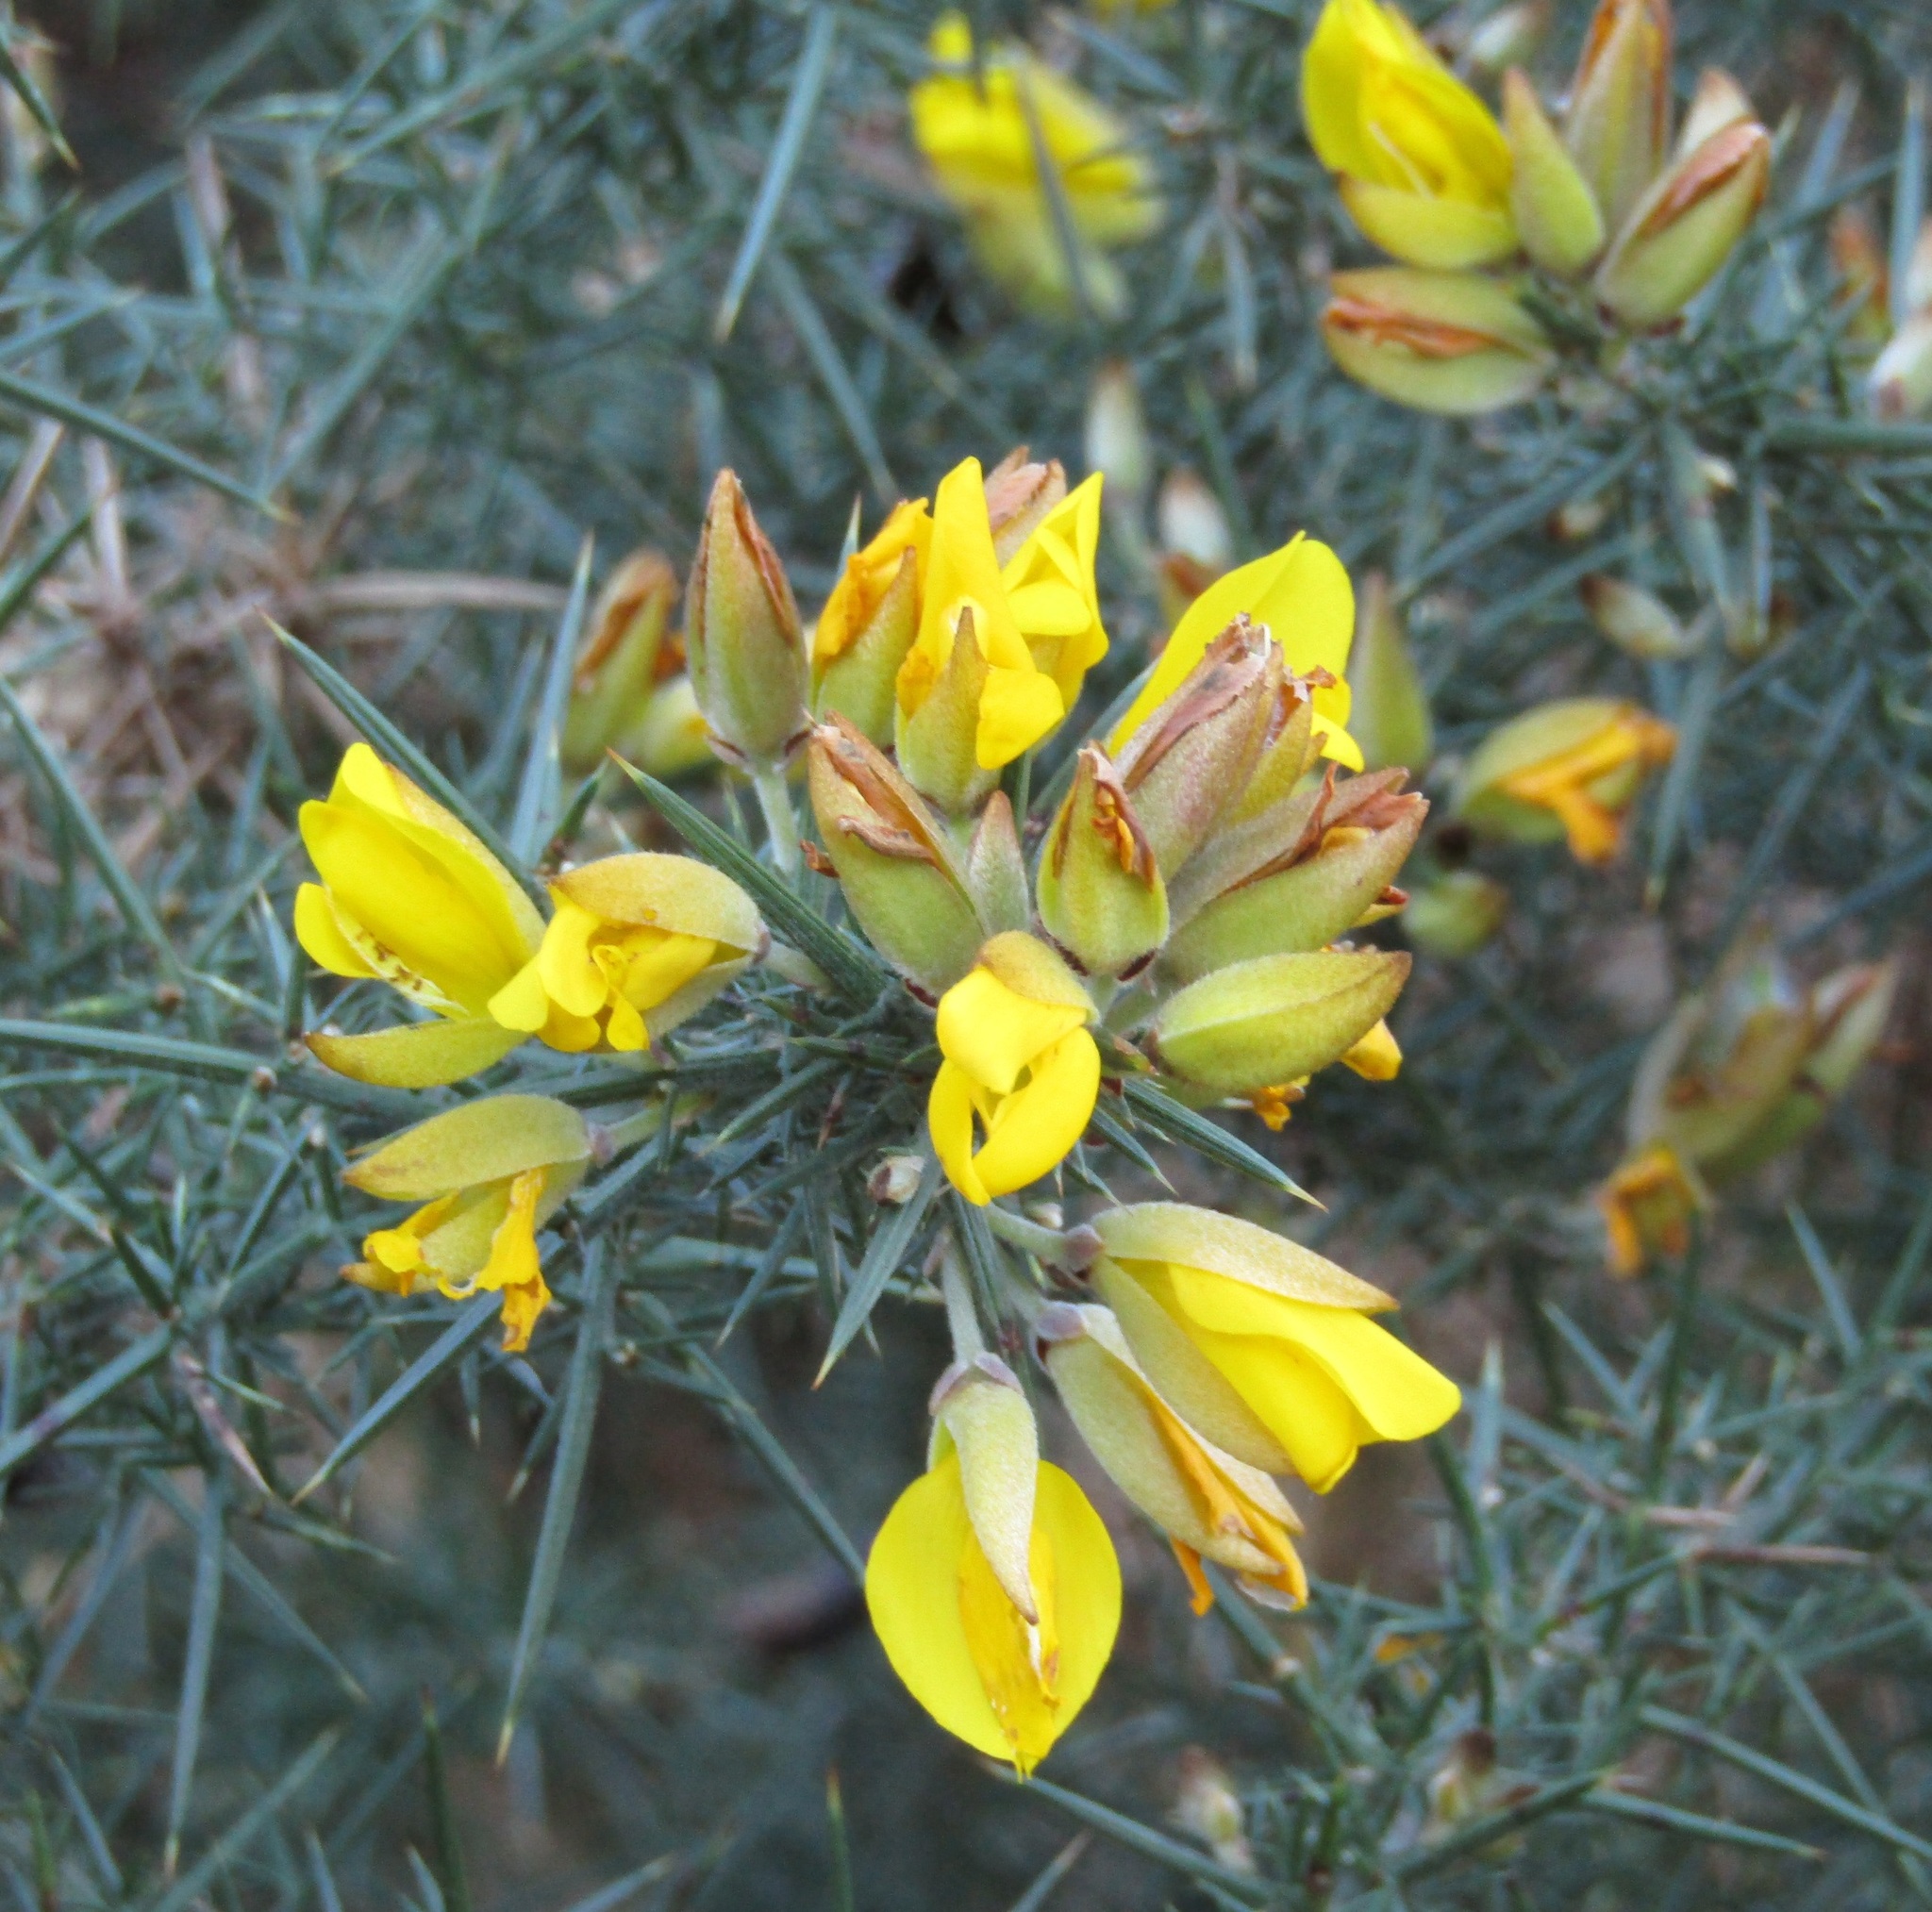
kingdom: Plantae
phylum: Tracheophyta
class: Magnoliopsida
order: Fabales
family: Fabaceae
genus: Ulex
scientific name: Ulex europaeus
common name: Common gorse
